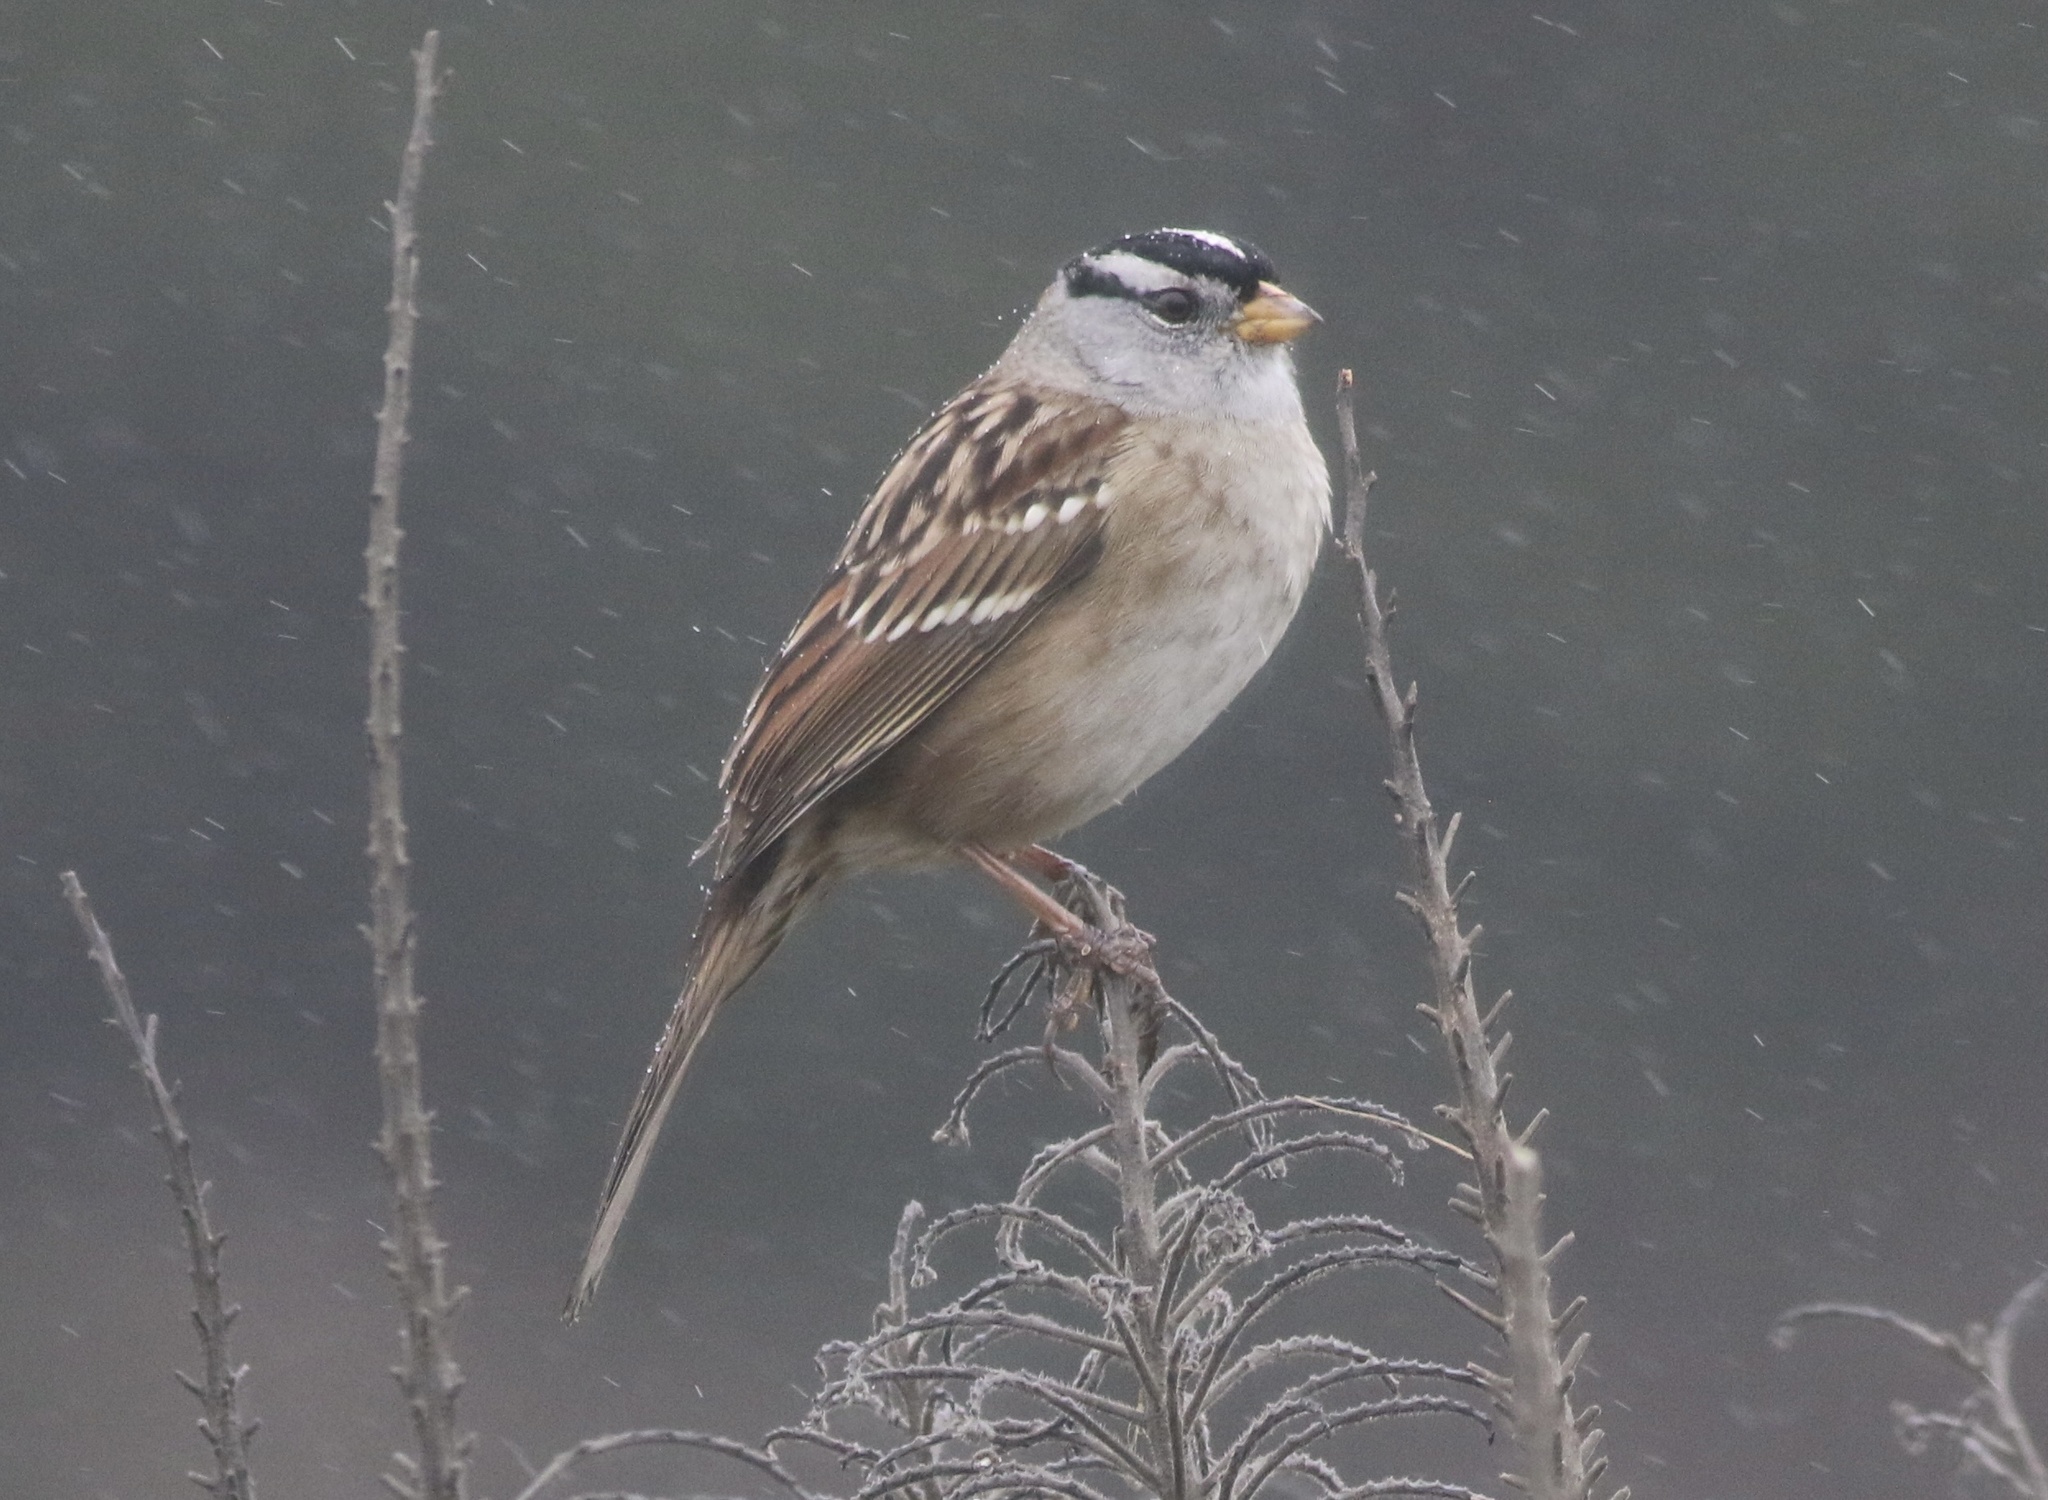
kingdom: Animalia
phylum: Chordata
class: Aves
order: Passeriformes
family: Passerellidae
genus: Zonotrichia
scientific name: Zonotrichia leucophrys
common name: White-crowned sparrow
